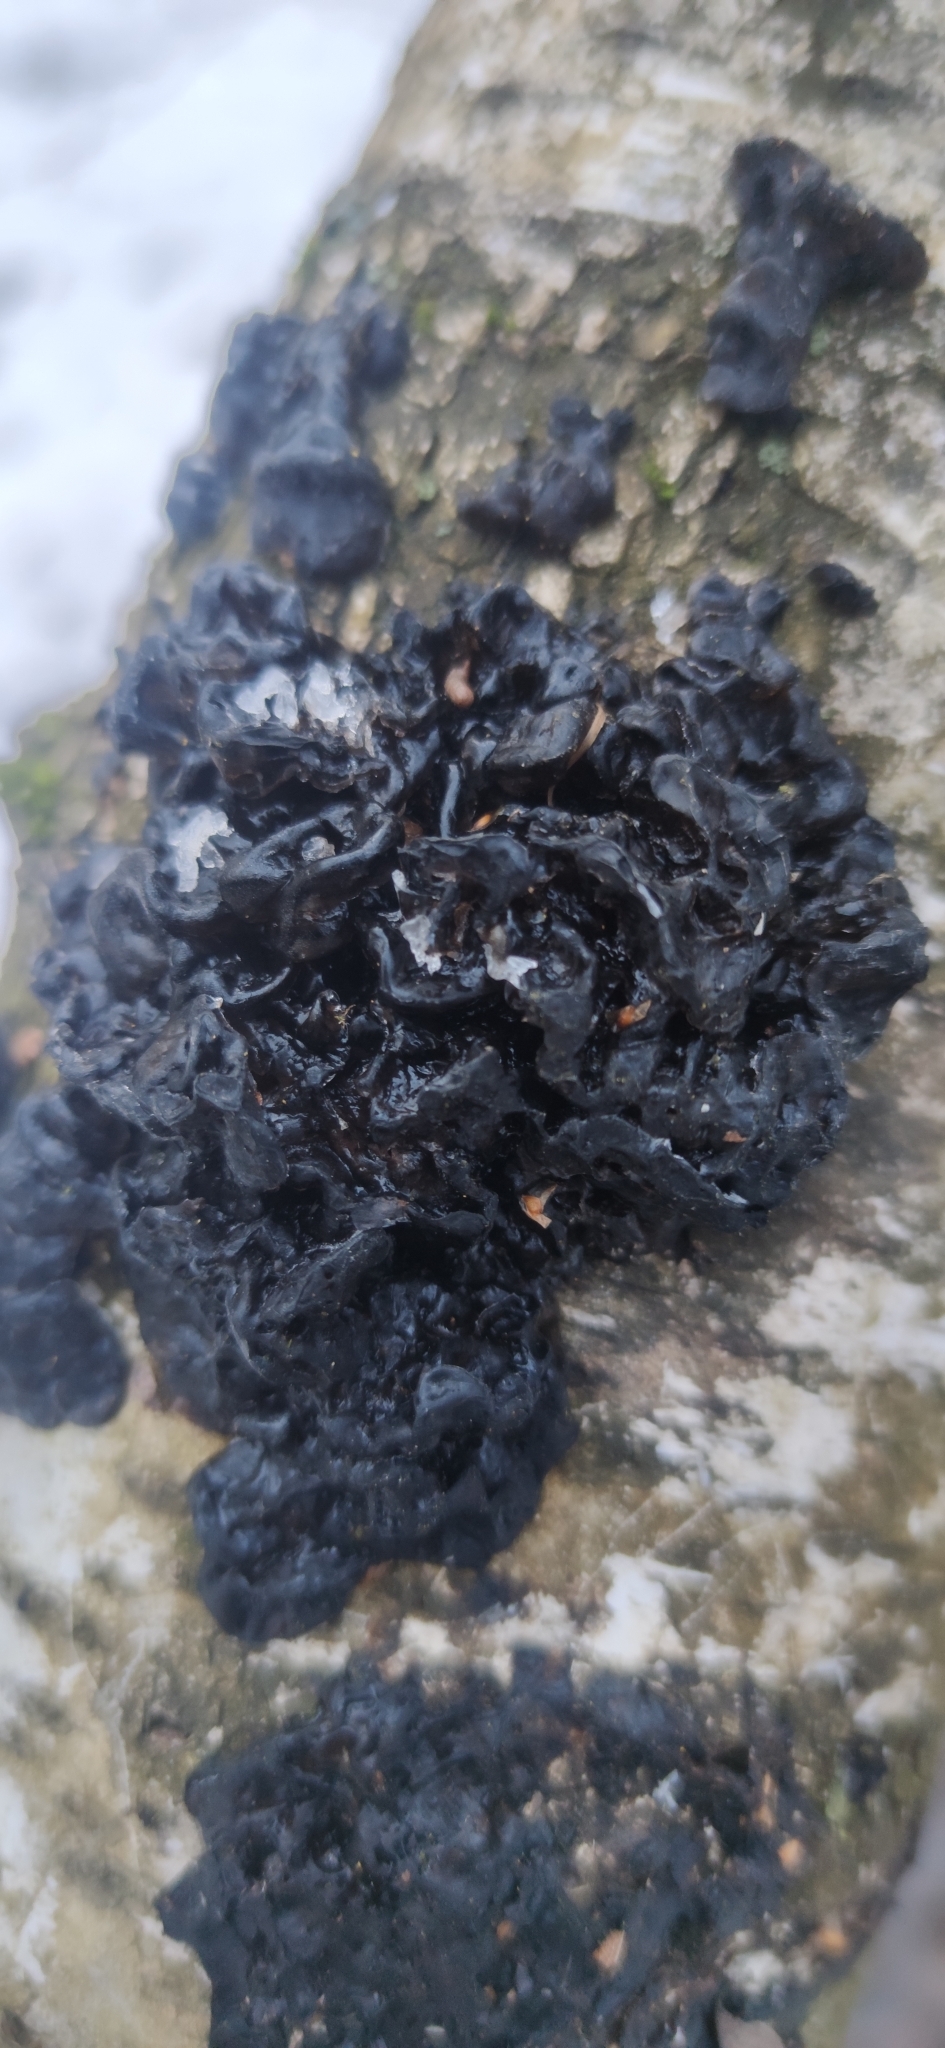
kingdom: Fungi
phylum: Basidiomycota
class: Agaricomycetes
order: Auriculariales
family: Auriculariaceae
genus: Exidia
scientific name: Exidia nigricans
